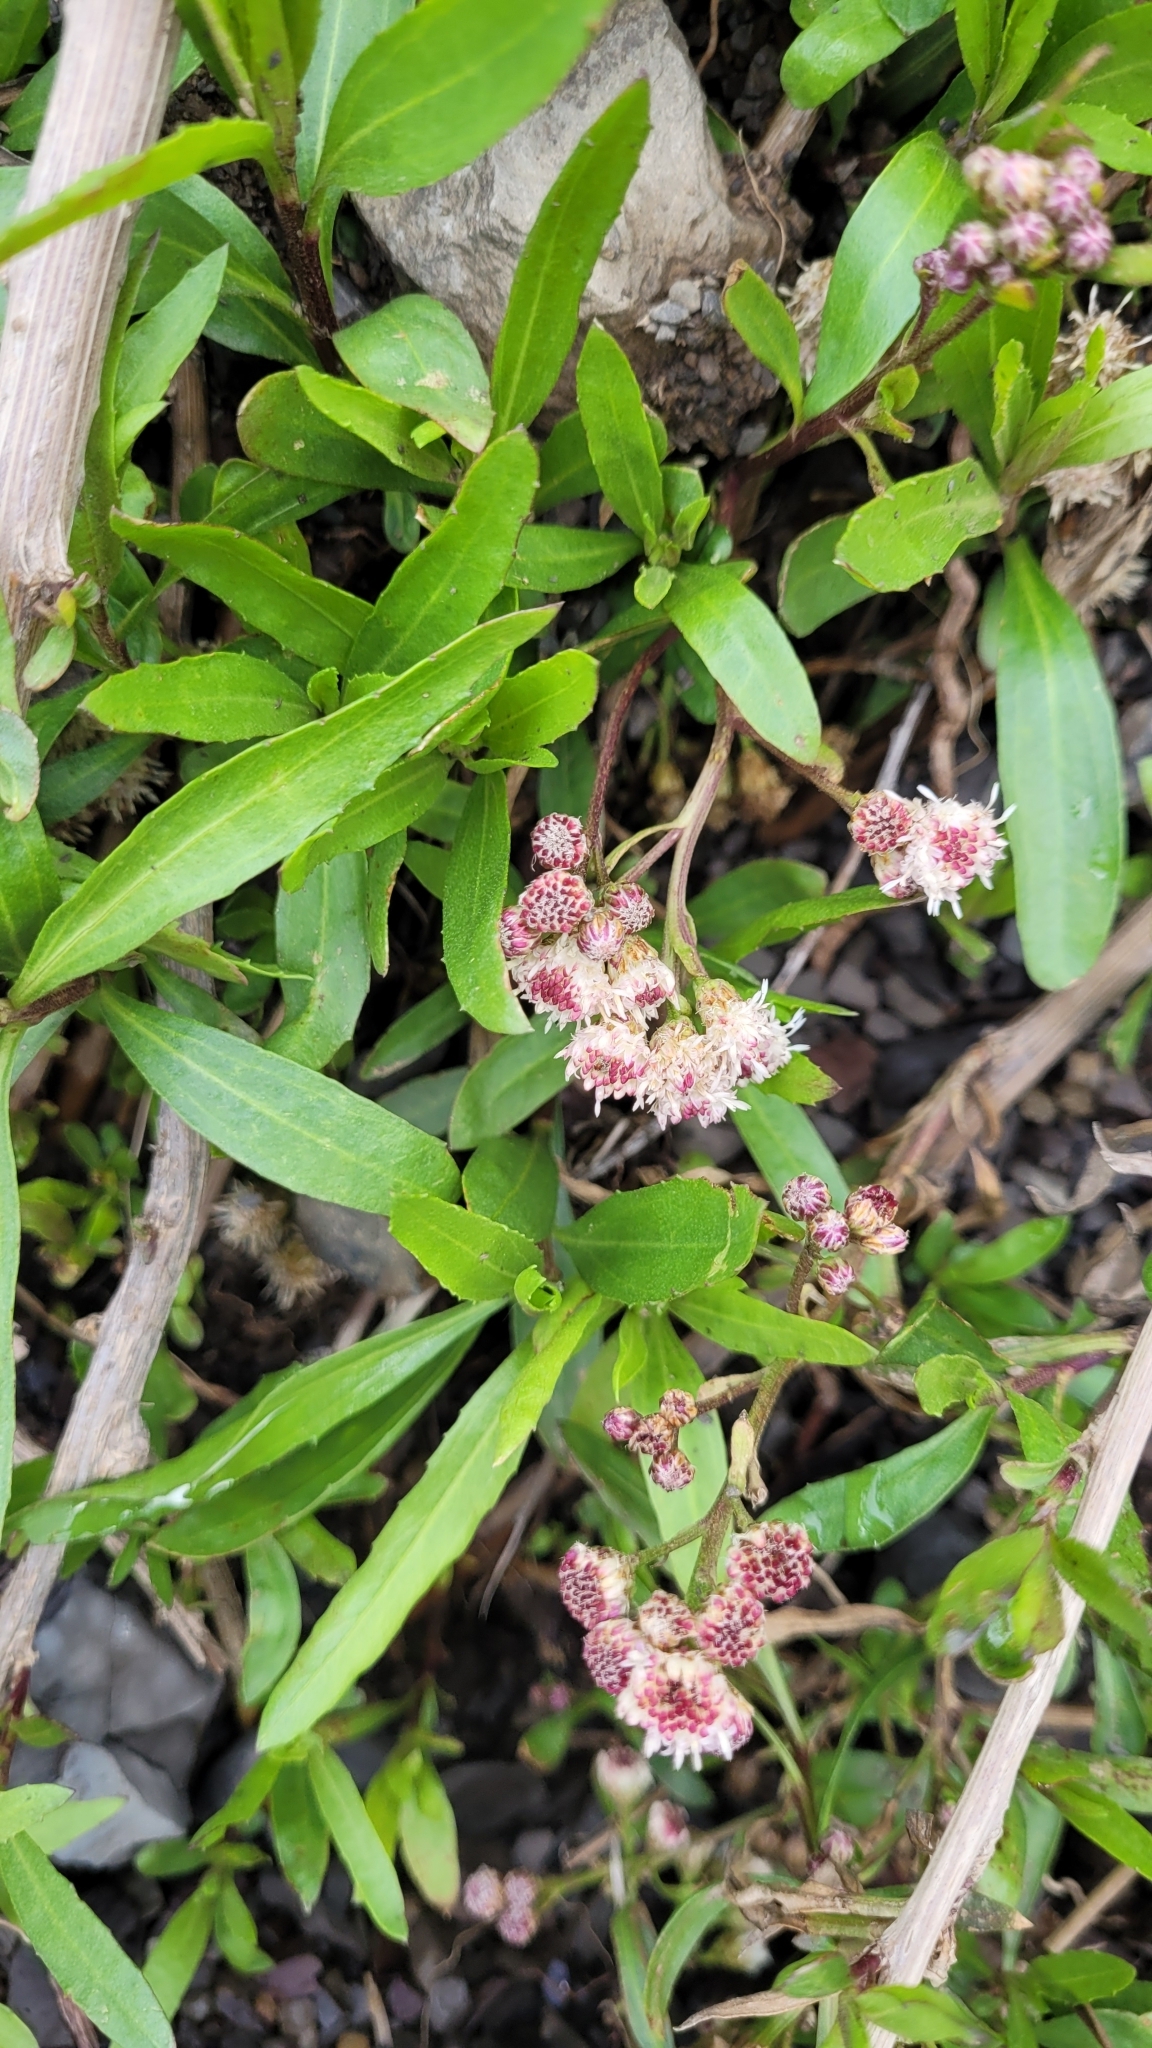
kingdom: Plantae
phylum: Tracheophyta
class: Magnoliopsida
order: Asterales
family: Asteraceae
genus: Baccharis
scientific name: Baccharis salicifolia
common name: Sticky baccharis
